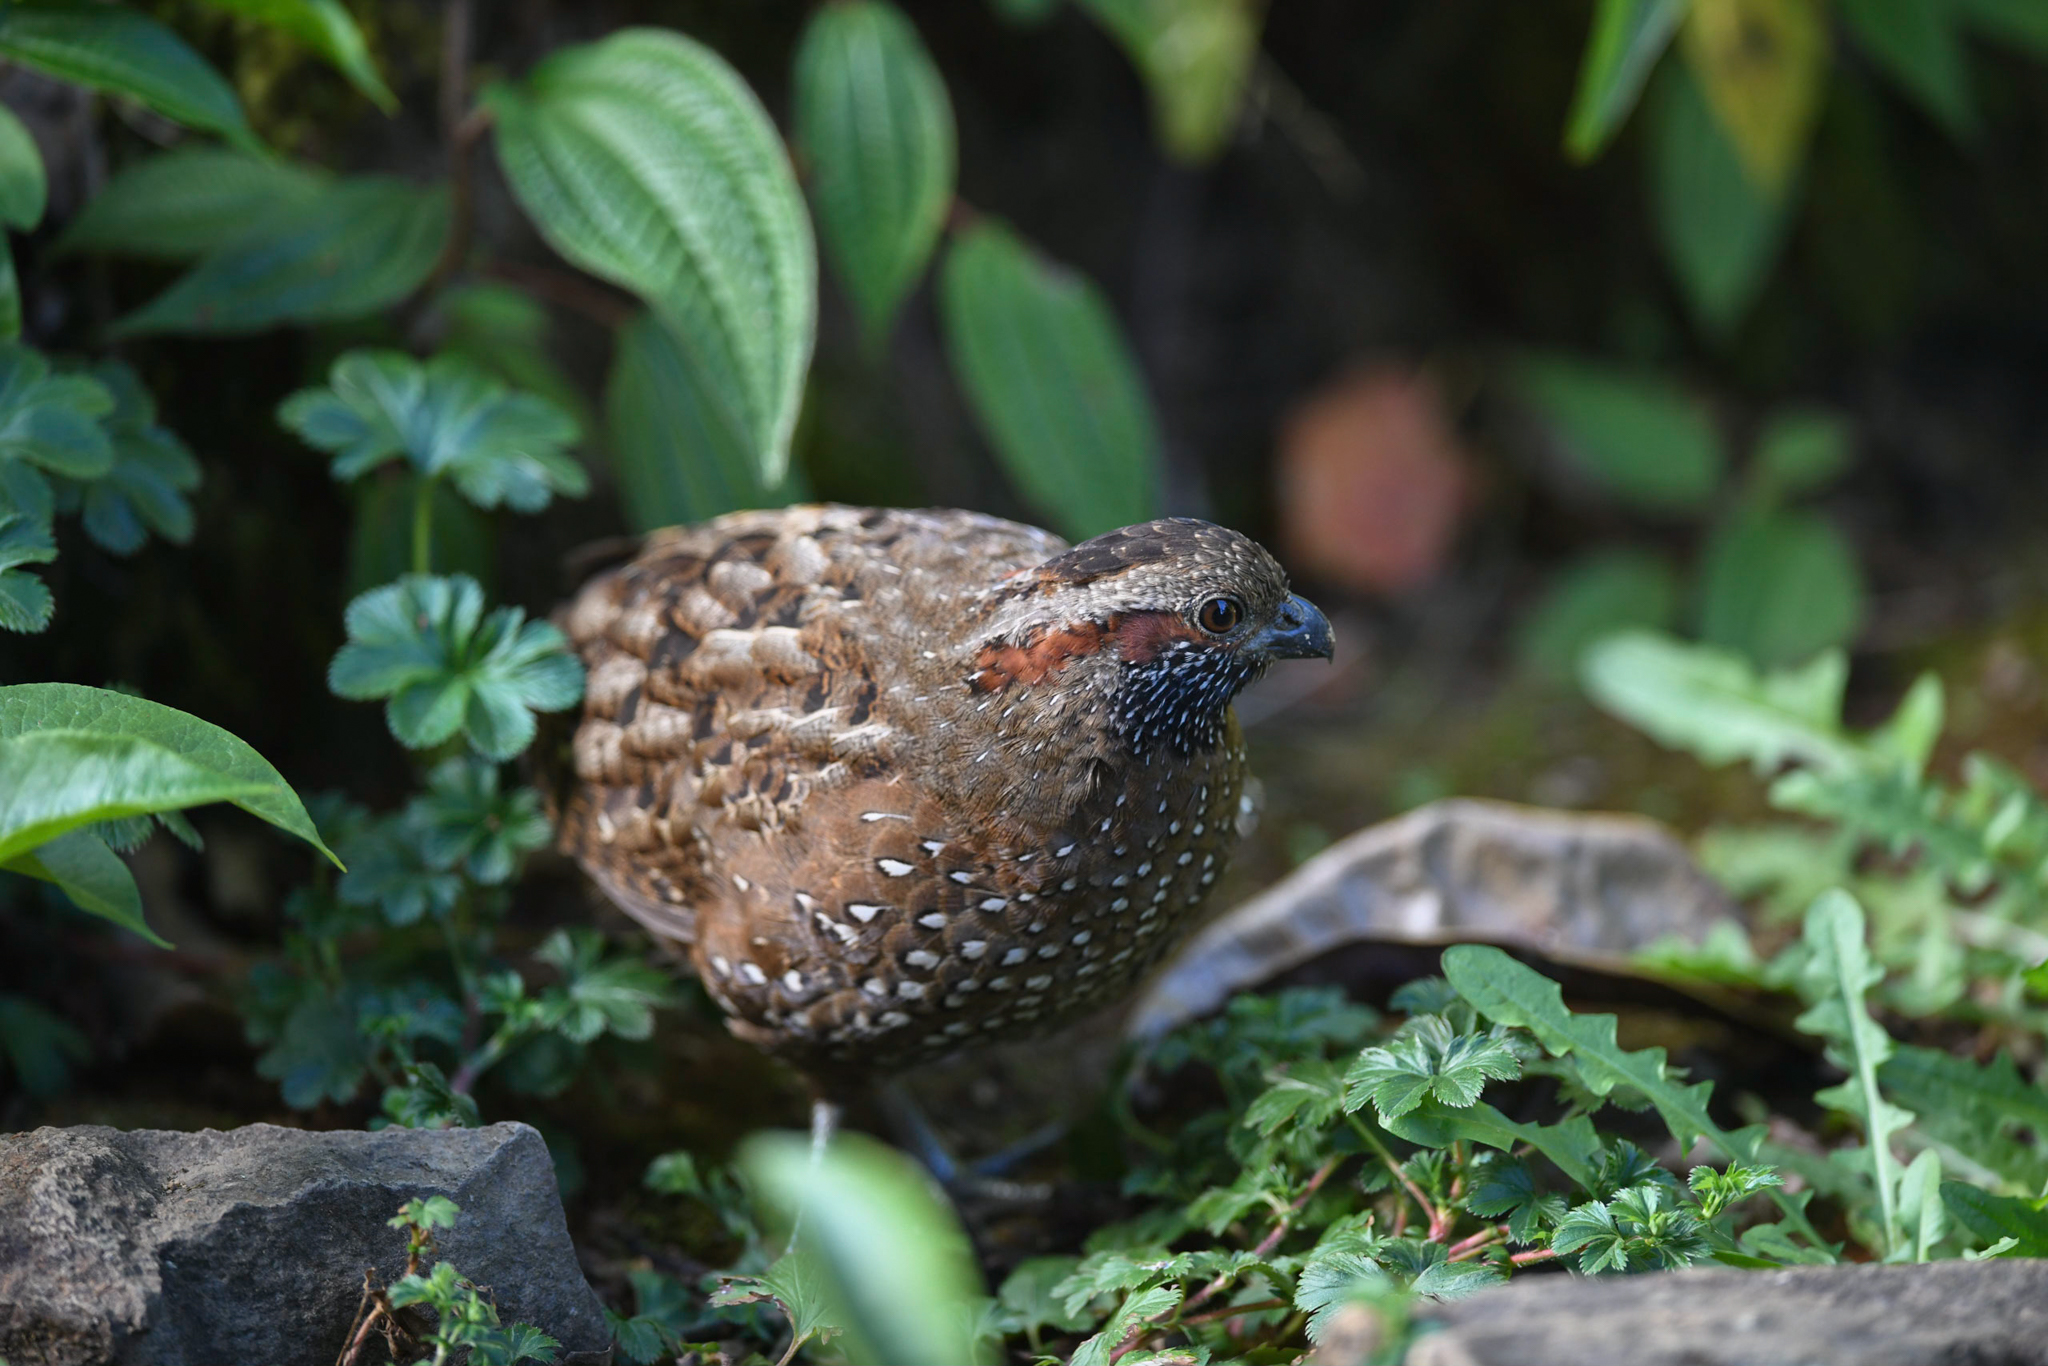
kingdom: Animalia
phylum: Chordata
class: Aves
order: Galliformes
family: Odontophoridae
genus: Odontophorus
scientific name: Odontophorus guttatus
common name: Spotted wood-quail
